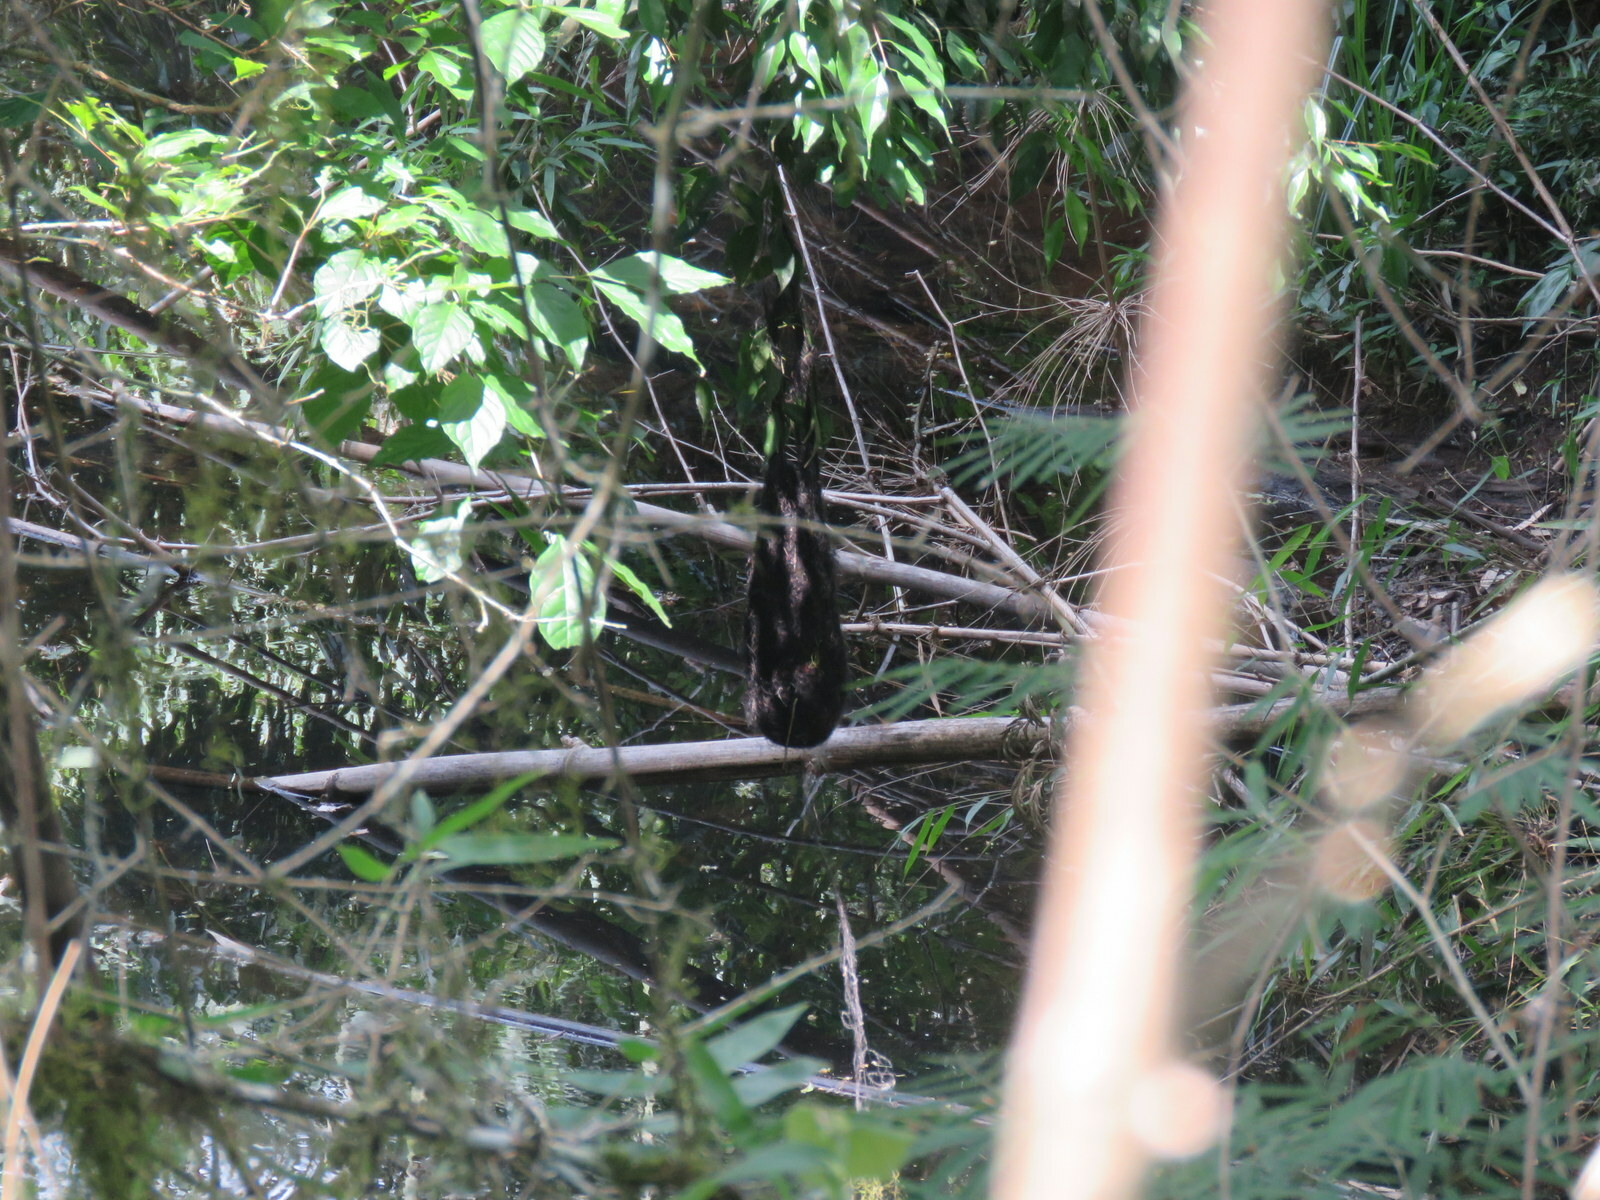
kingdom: Animalia
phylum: Chordata
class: Aves
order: Passeriformes
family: Icteridae
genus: Cacicus
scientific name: Cacicus chrysopterus
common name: Golden-winged cacique
